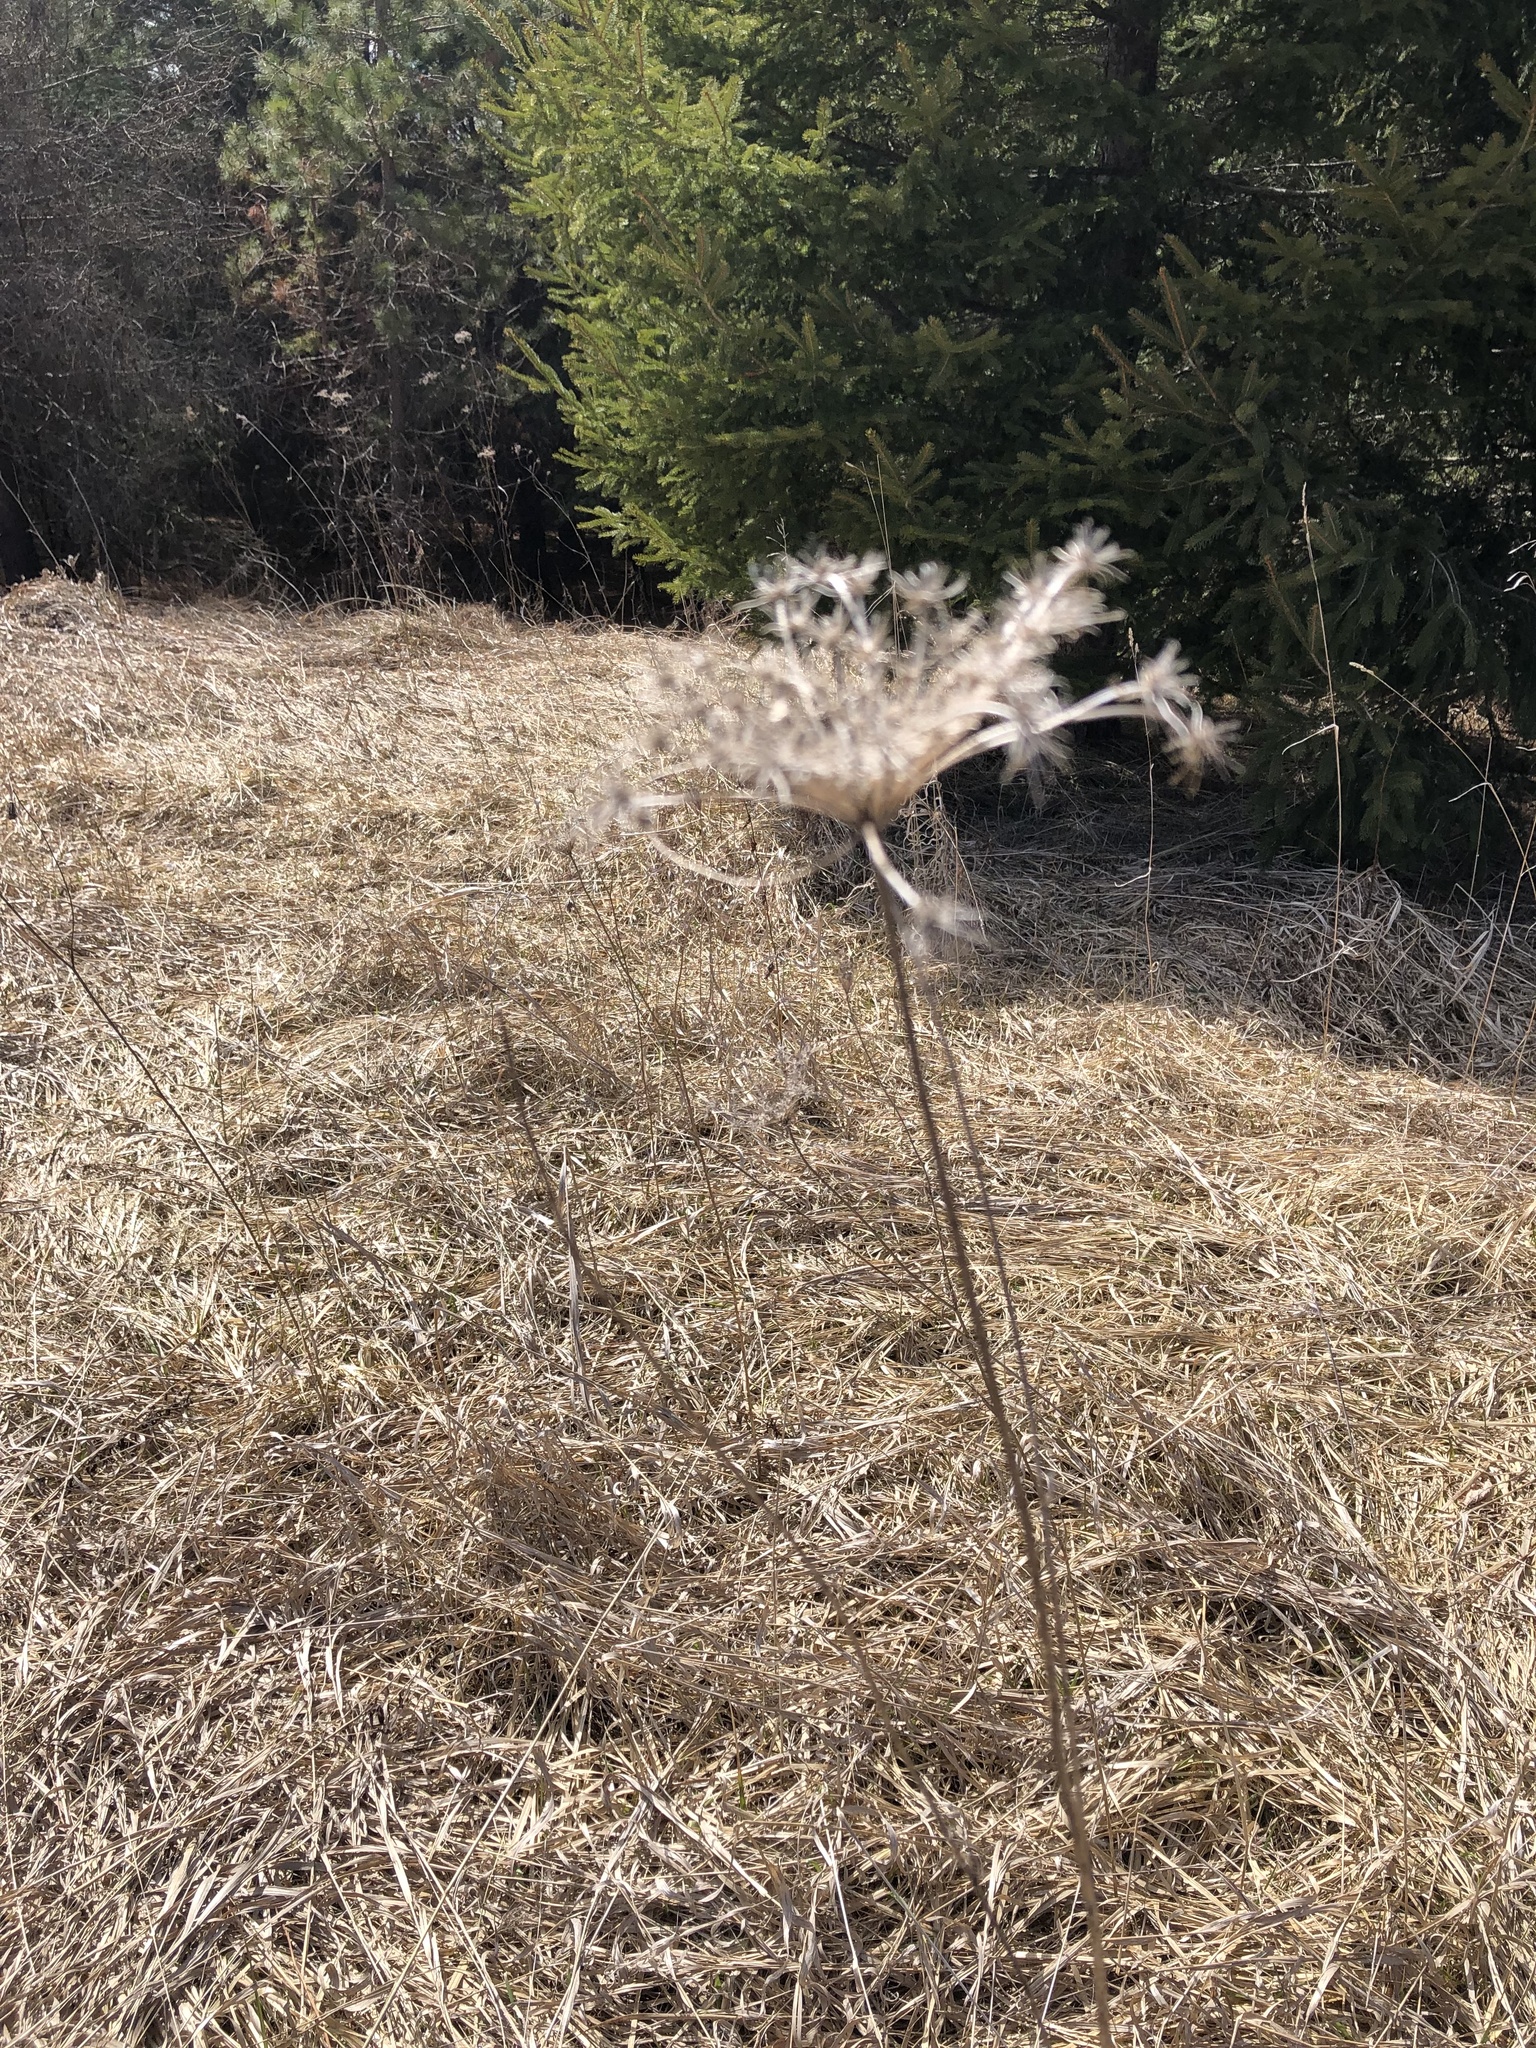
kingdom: Plantae
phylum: Tracheophyta
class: Magnoliopsida
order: Apiales
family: Apiaceae
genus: Daucus
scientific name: Daucus carota
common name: Wild carrot
